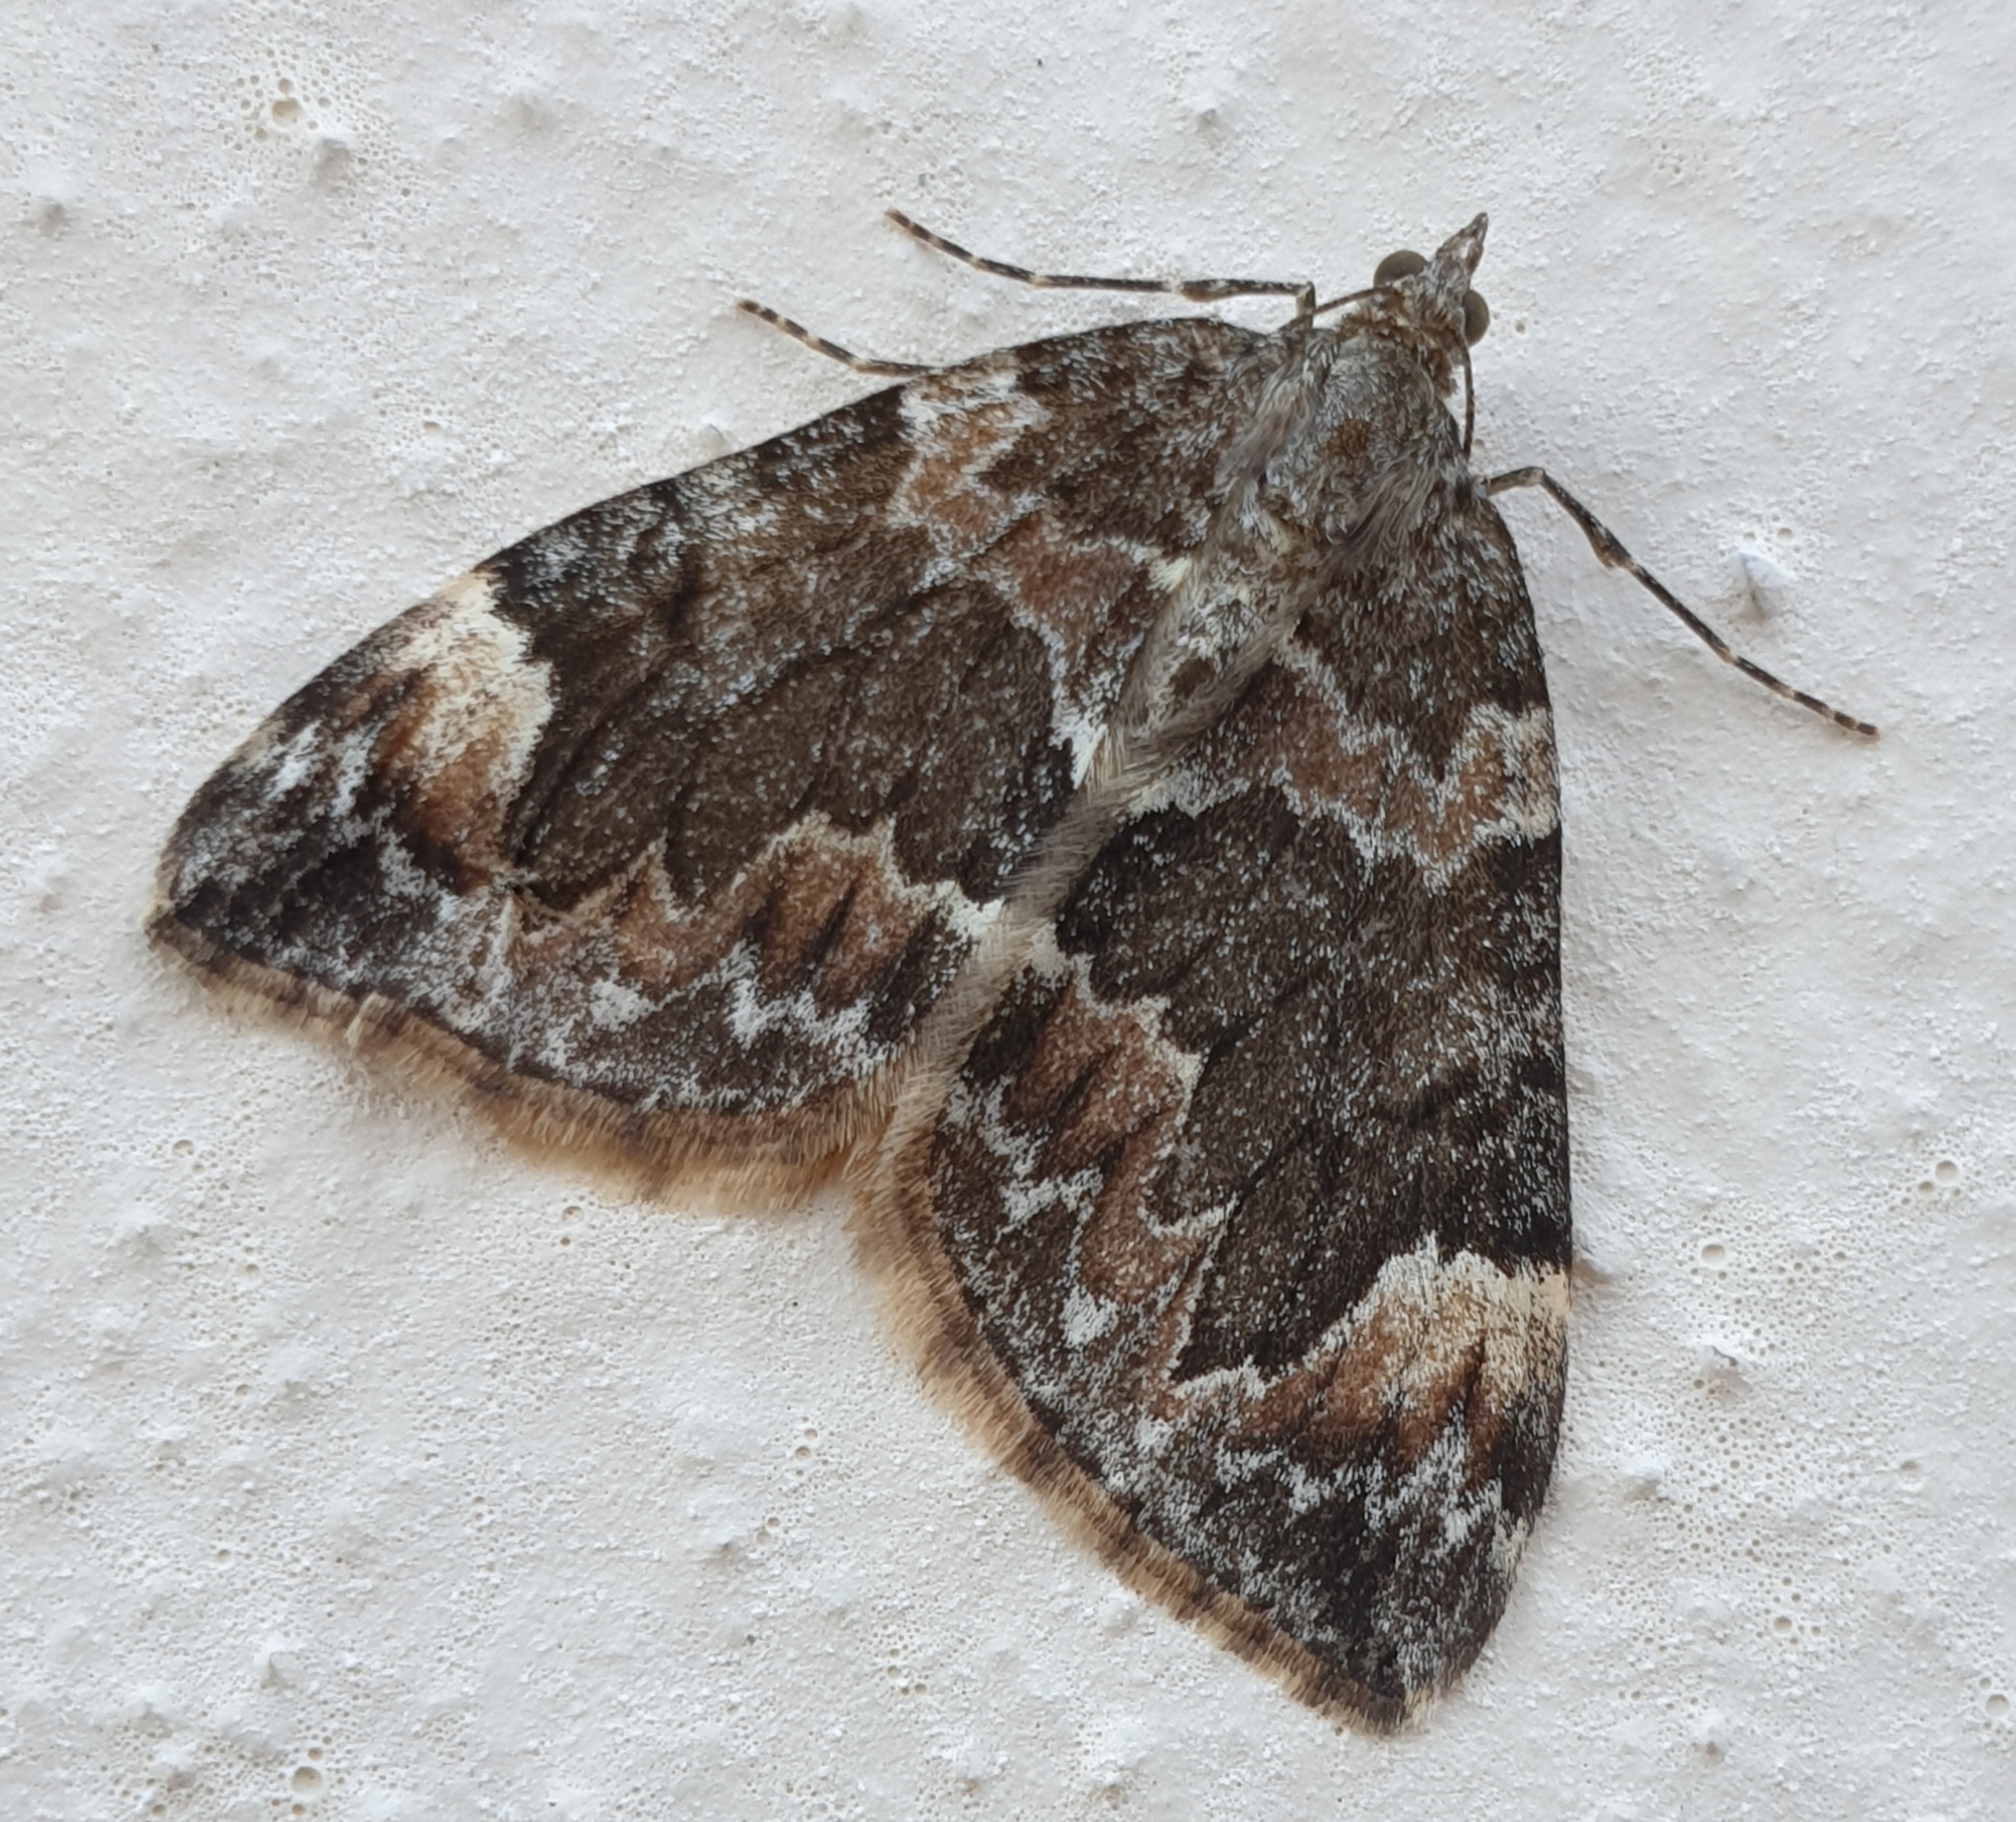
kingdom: Animalia
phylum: Arthropoda
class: Insecta
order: Lepidoptera
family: Geometridae
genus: Dysstroma
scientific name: Dysstroma citrata
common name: Dark marbled carpet
